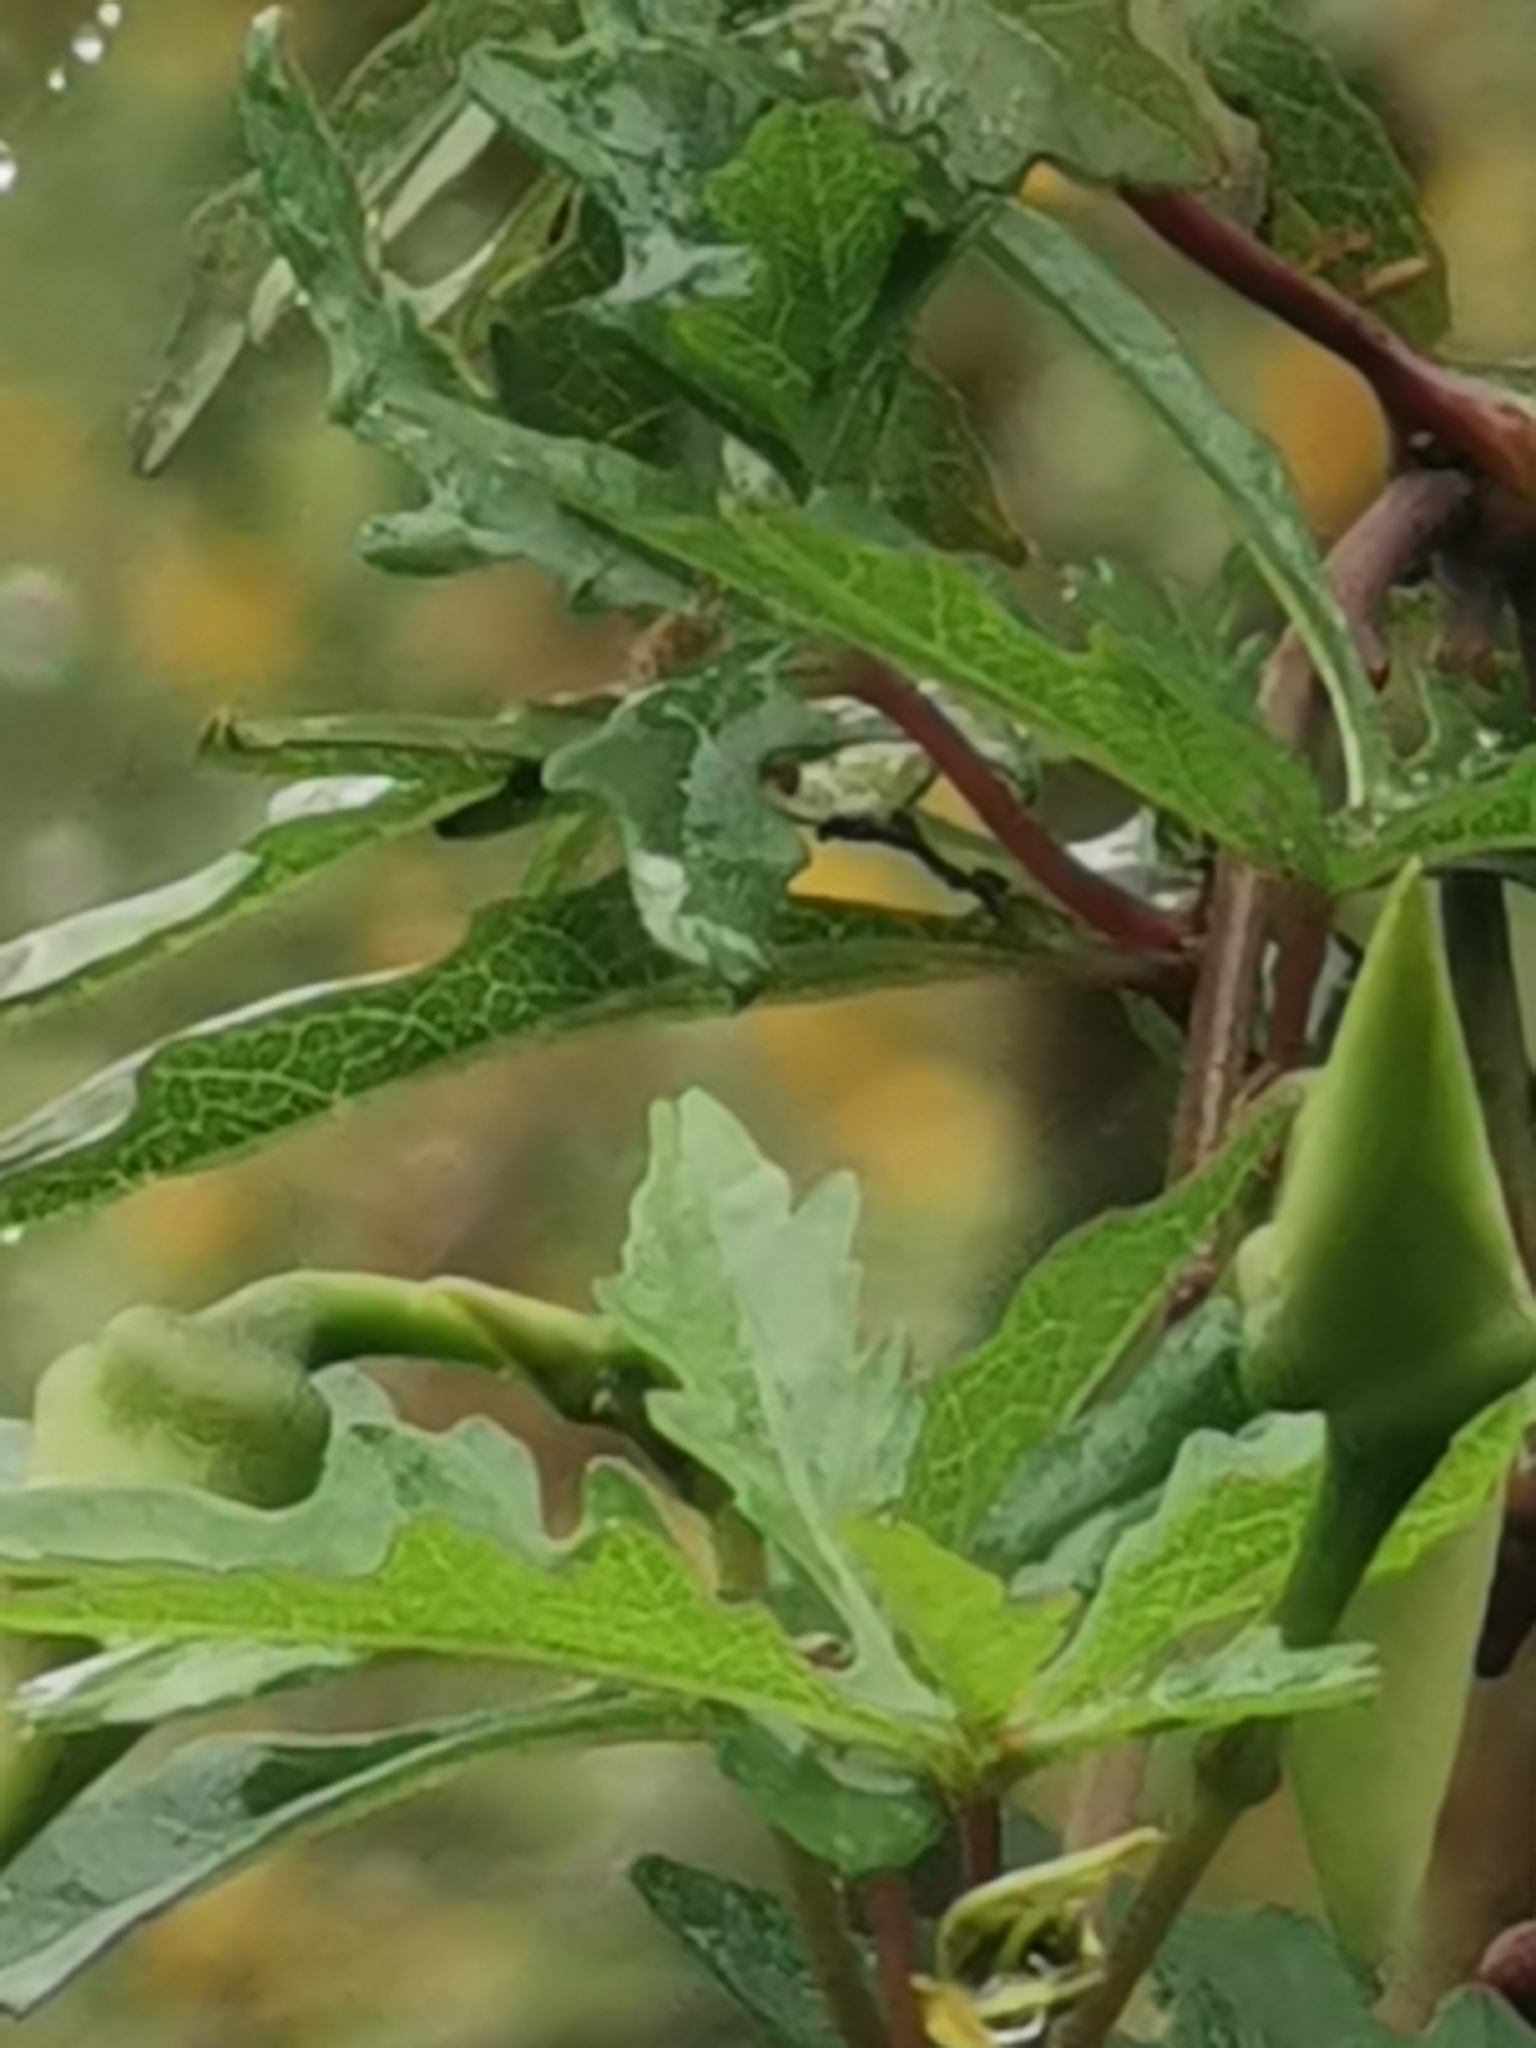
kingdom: Plantae
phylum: Tracheophyta
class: Magnoliopsida
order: Solanales
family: Convolvulaceae
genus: Distimake
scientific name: Distimake dissectus
